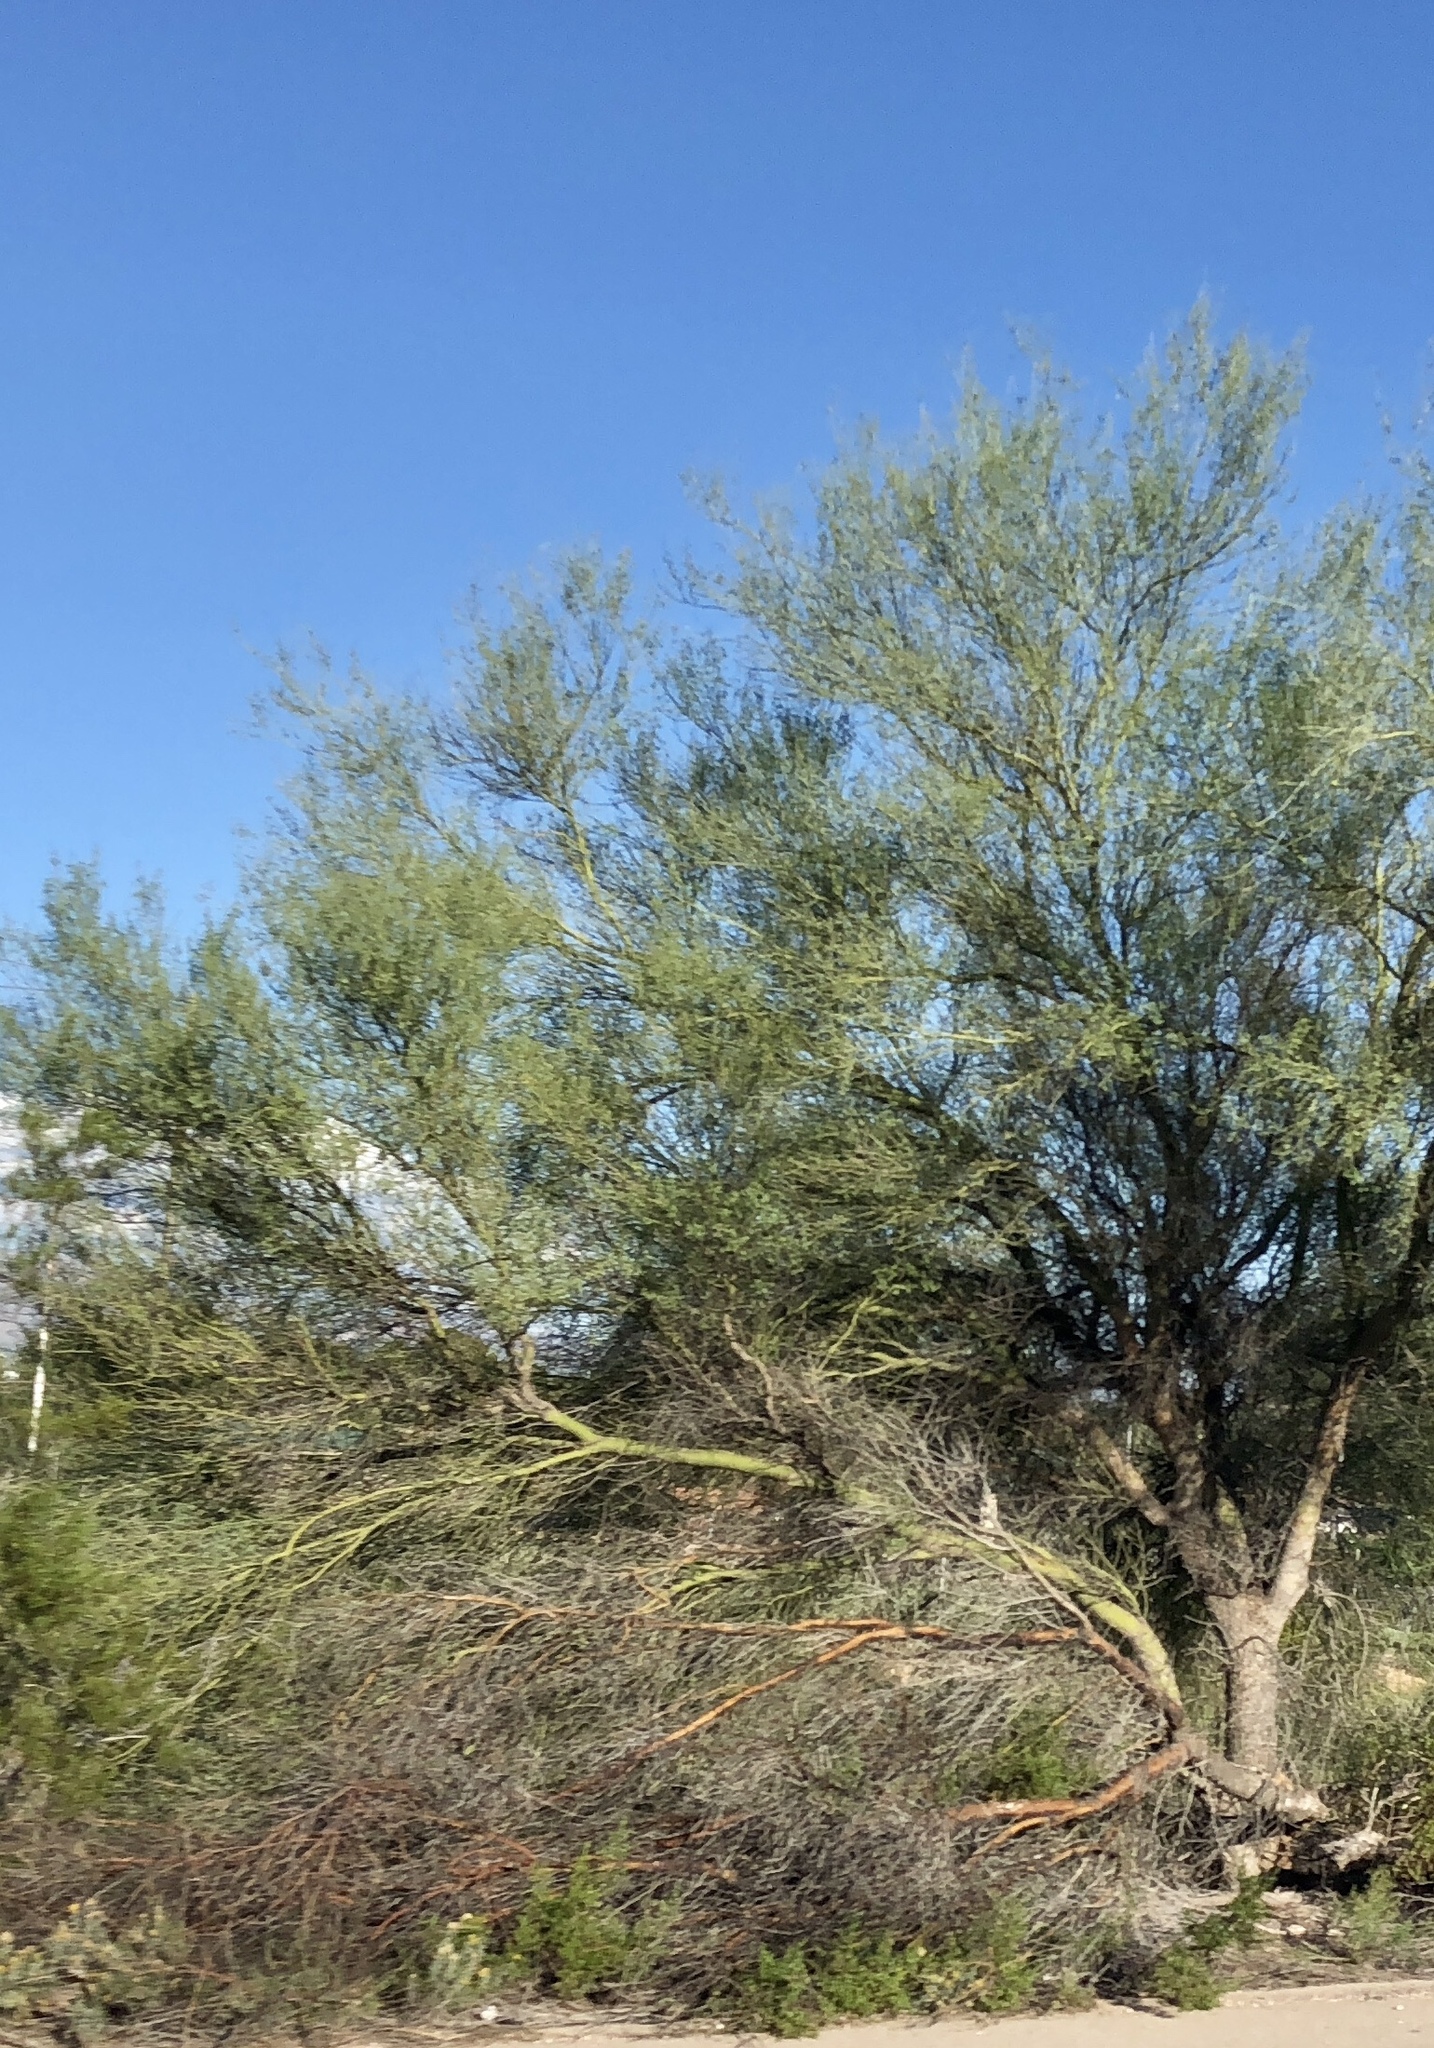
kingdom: Plantae
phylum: Tracheophyta
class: Magnoliopsida
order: Fabales
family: Fabaceae
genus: Parkinsonia
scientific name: Parkinsonia microphylla
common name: Yellow paloverde
